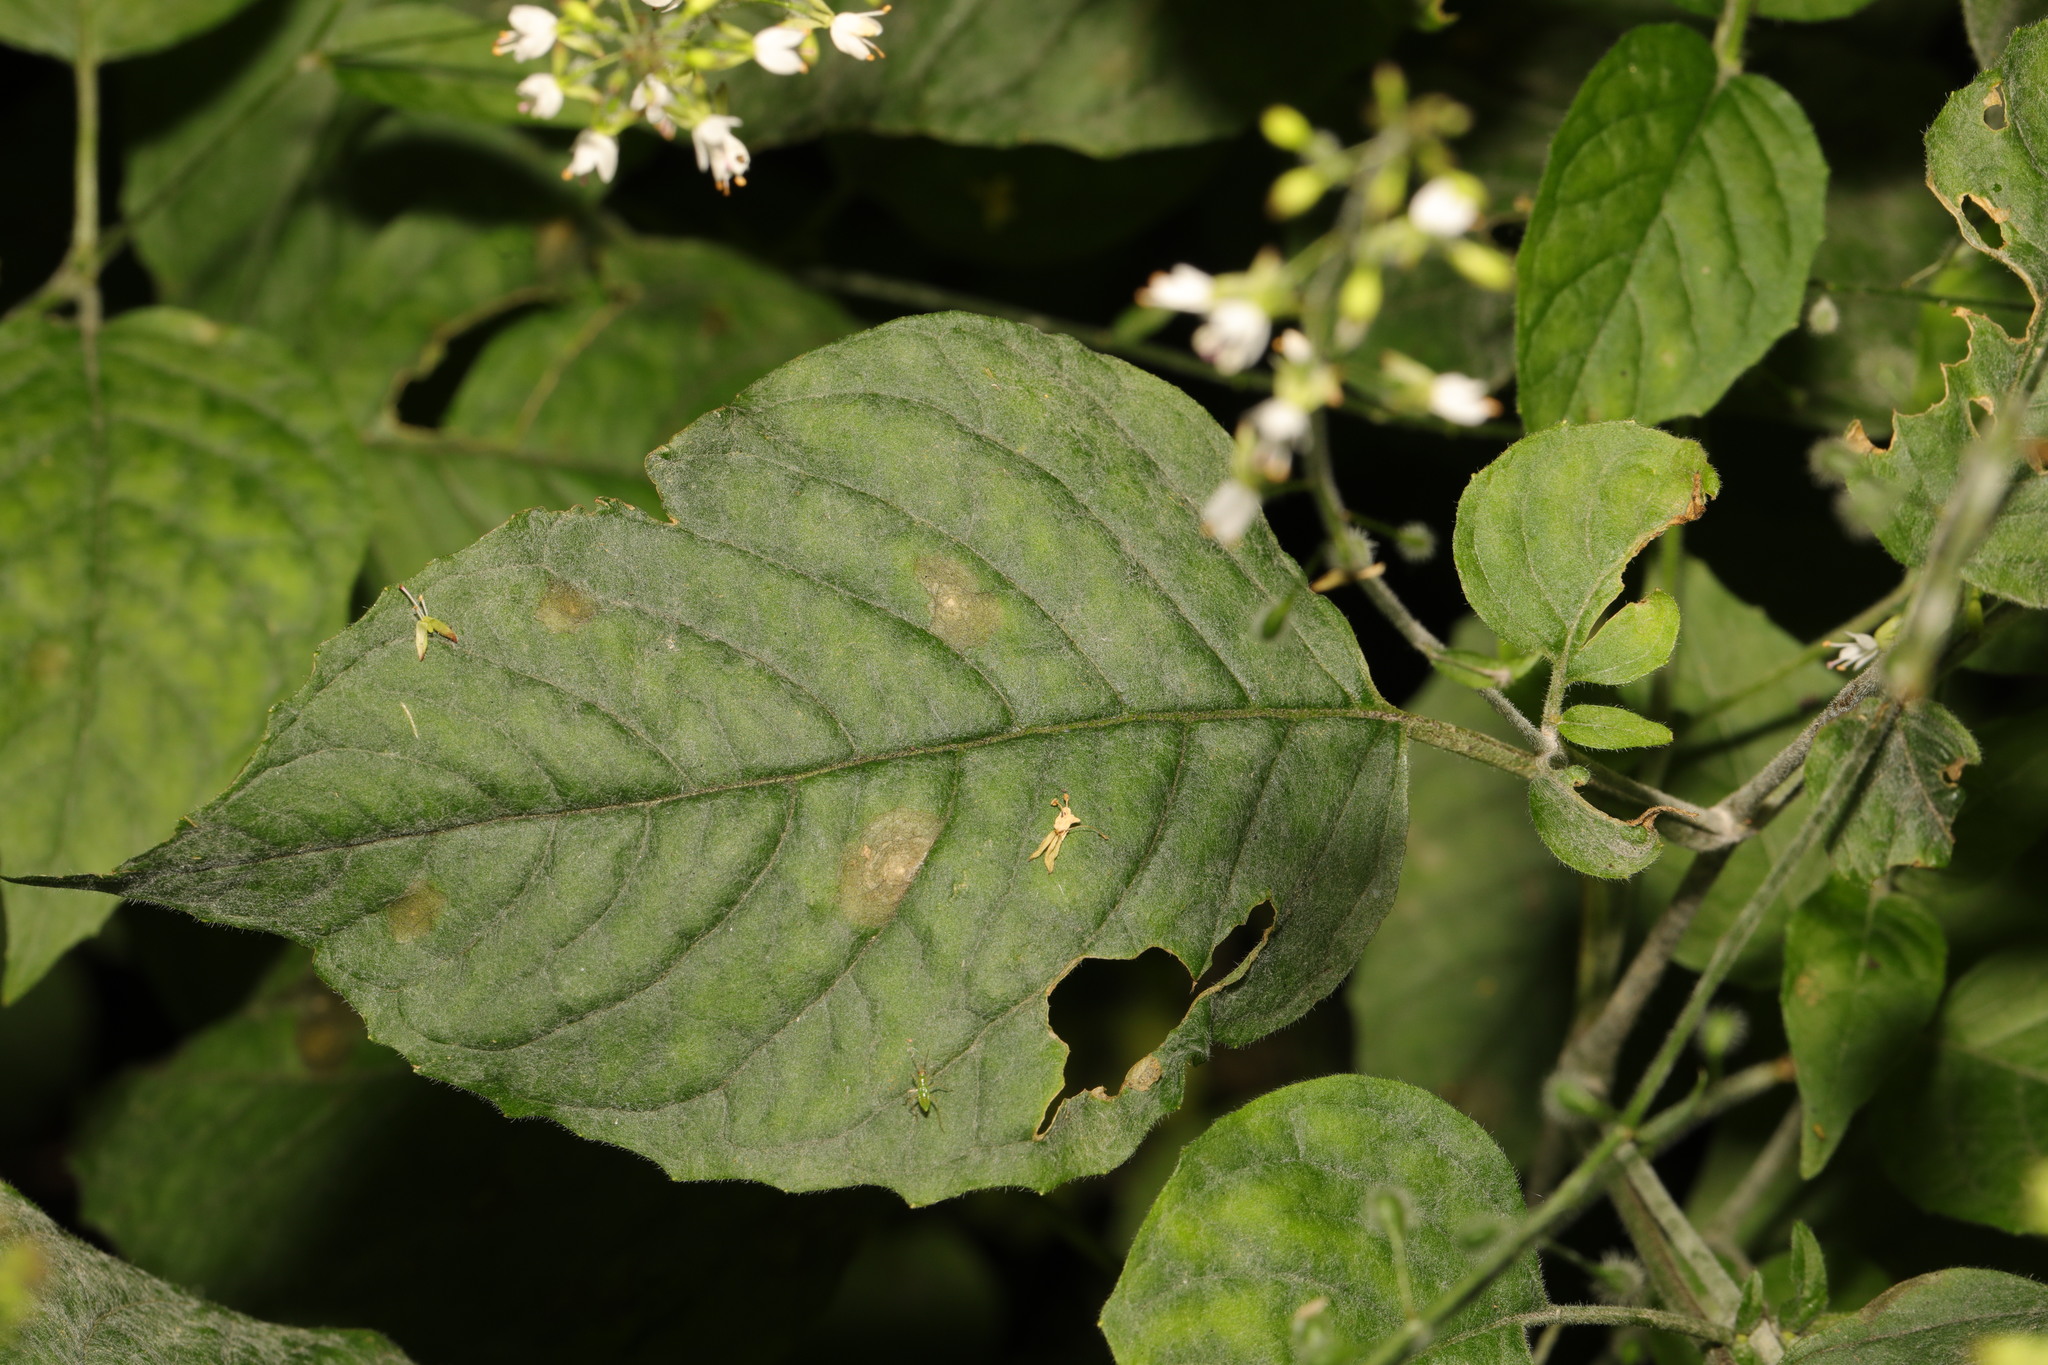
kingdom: Fungi
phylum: Ascomycota
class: Leotiomycetes
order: Helotiales
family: Erysiphaceae
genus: Erysiphe
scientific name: Erysiphe circaeae
